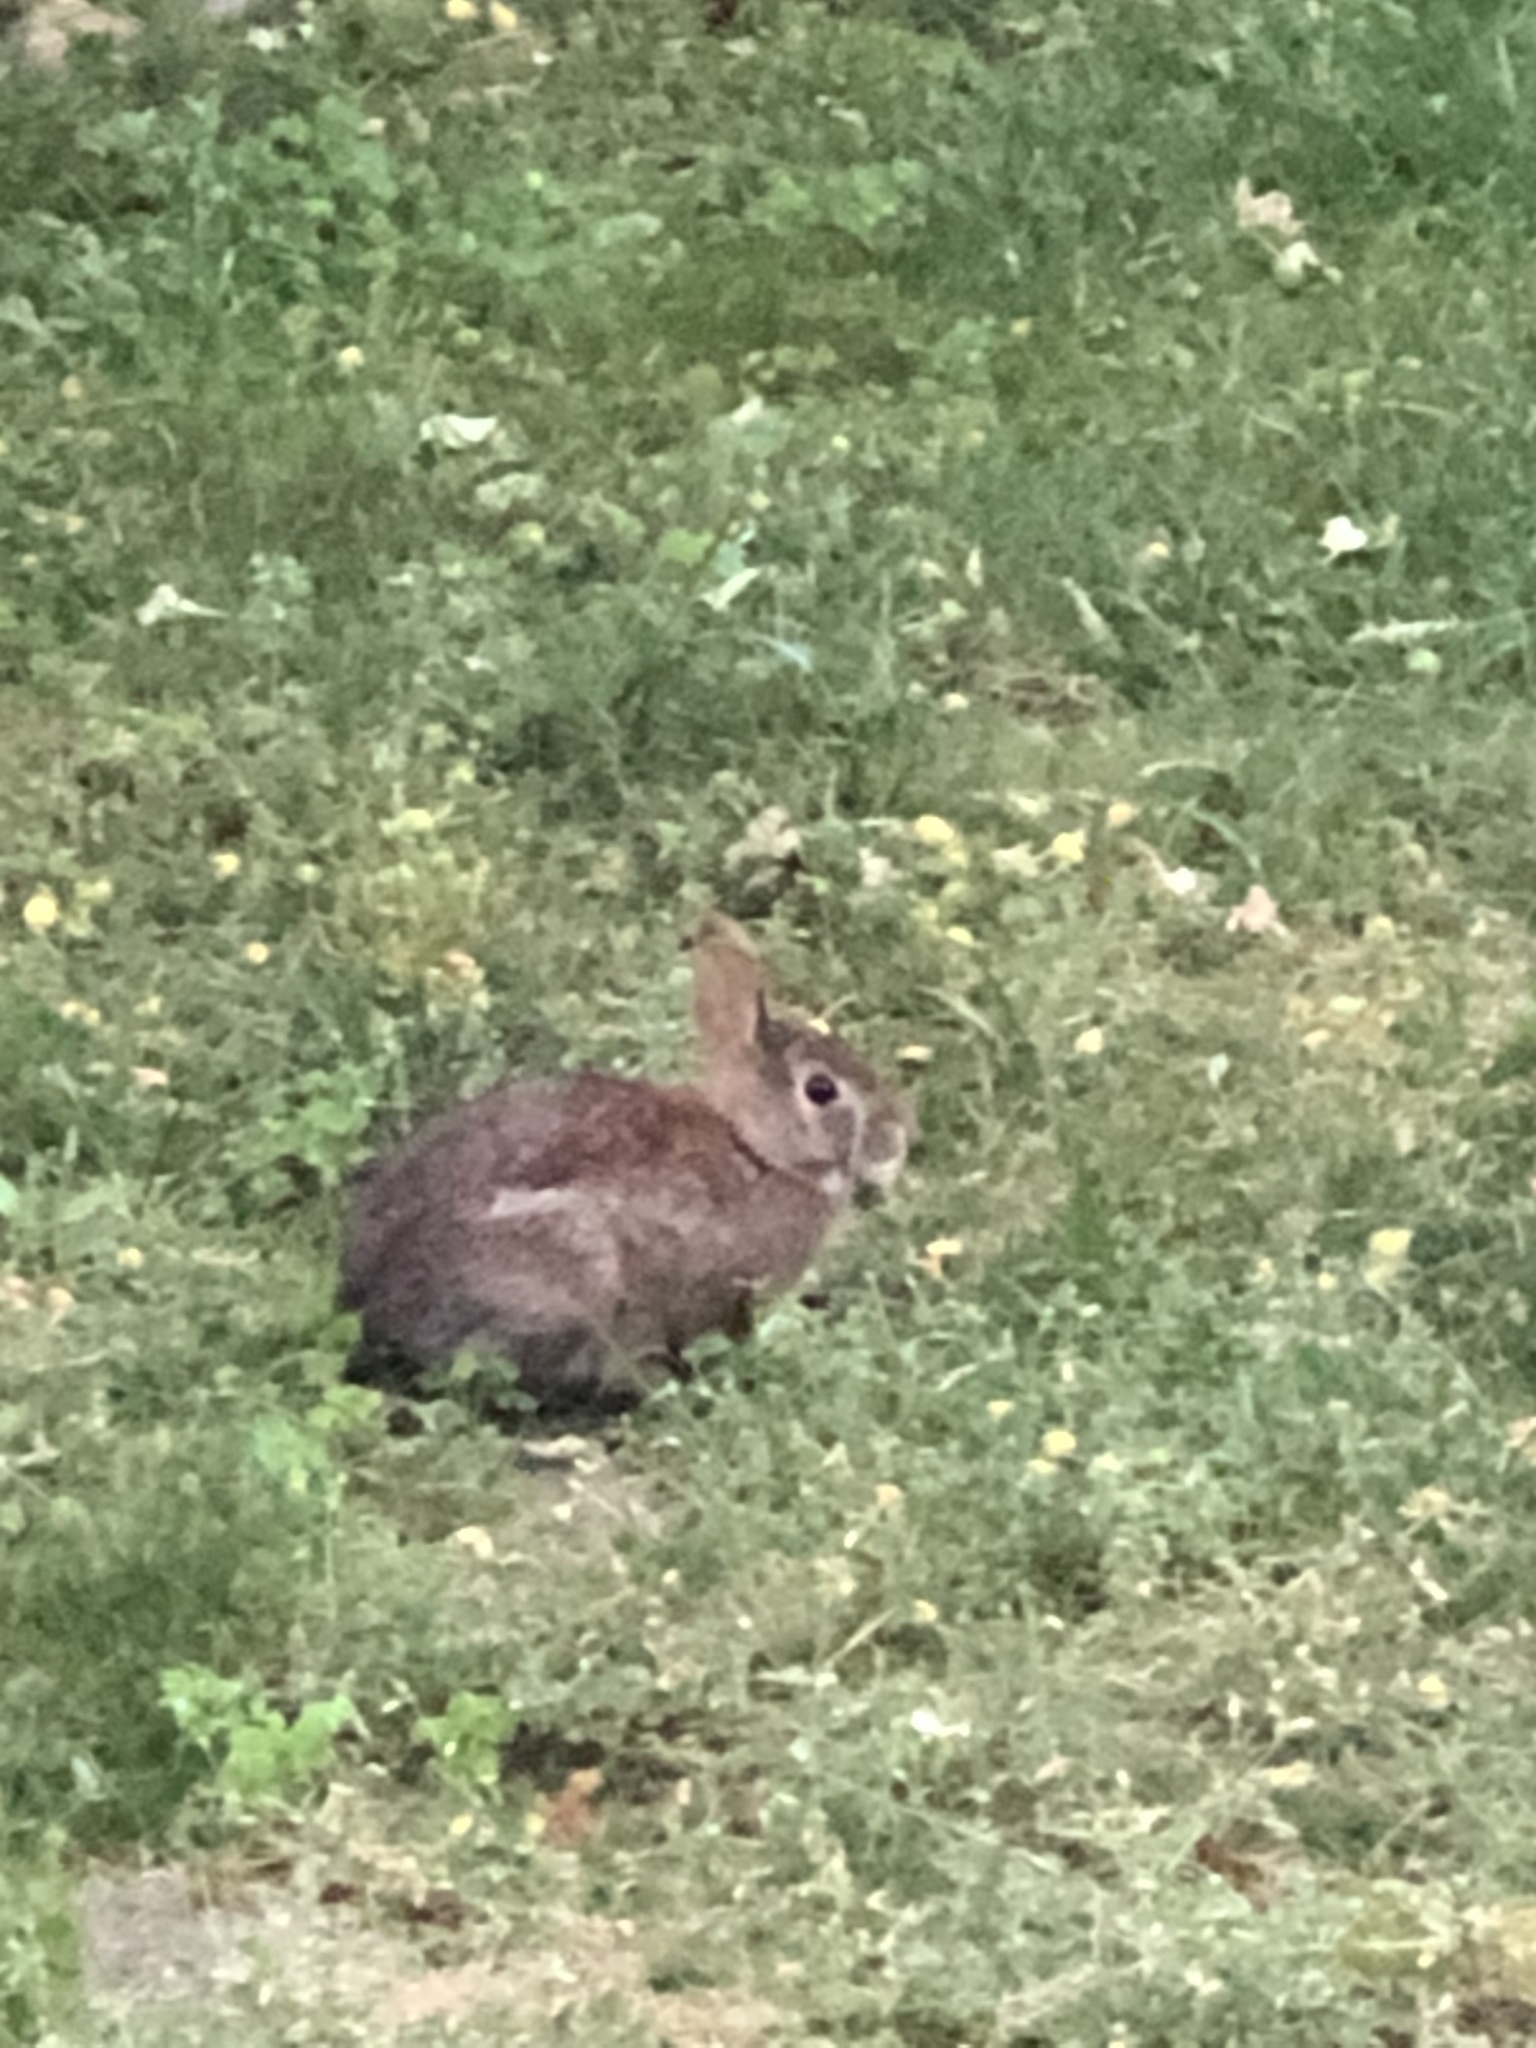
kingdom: Animalia
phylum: Chordata
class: Mammalia
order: Lagomorpha
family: Leporidae
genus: Sylvilagus
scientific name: Sylvilagus floridanus
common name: Eastern cottontail
